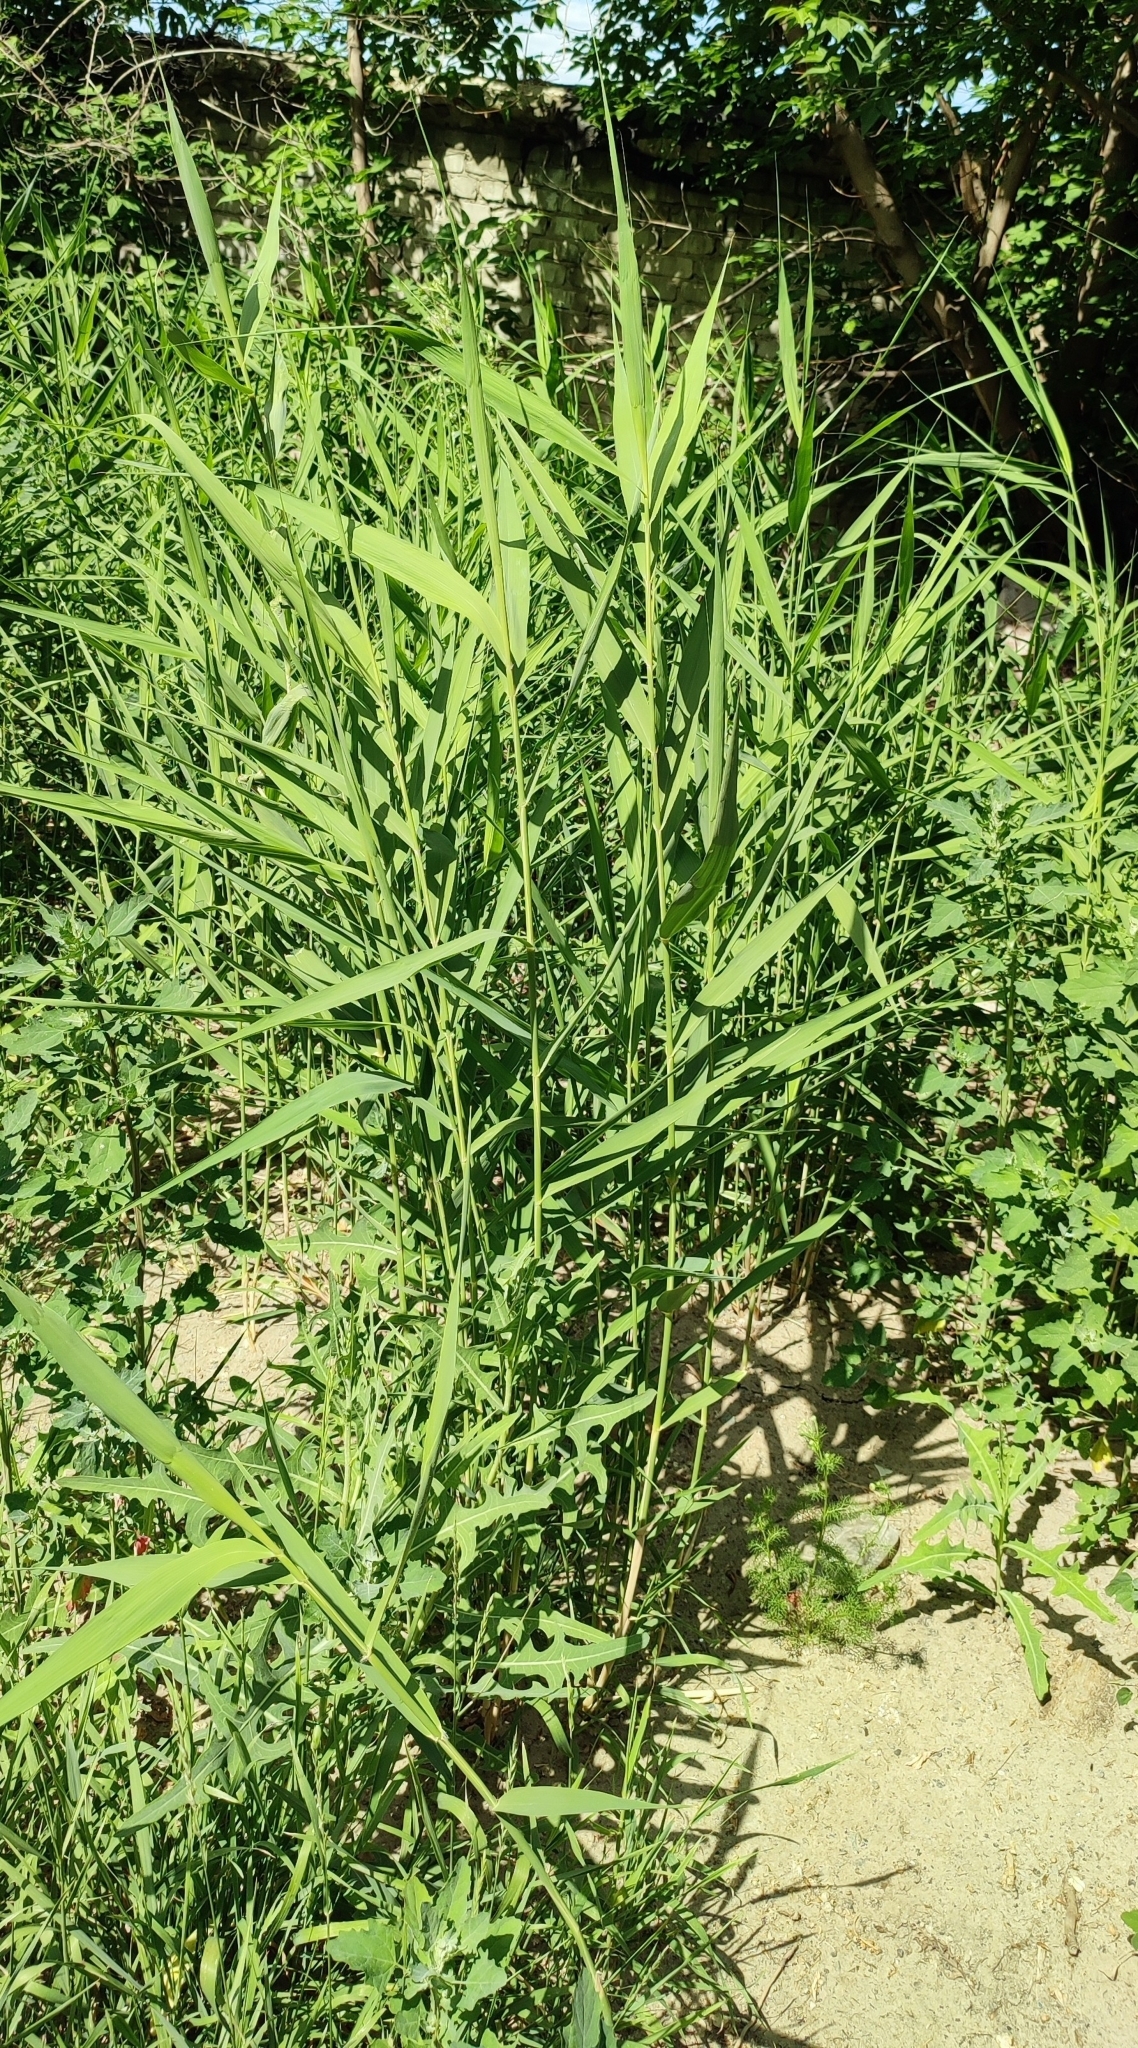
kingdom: Plantae
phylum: Tracheophyta
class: Liliopsida
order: Poales
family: Poaceae
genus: Phragmites
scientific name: Phragmites australis
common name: Common reed
